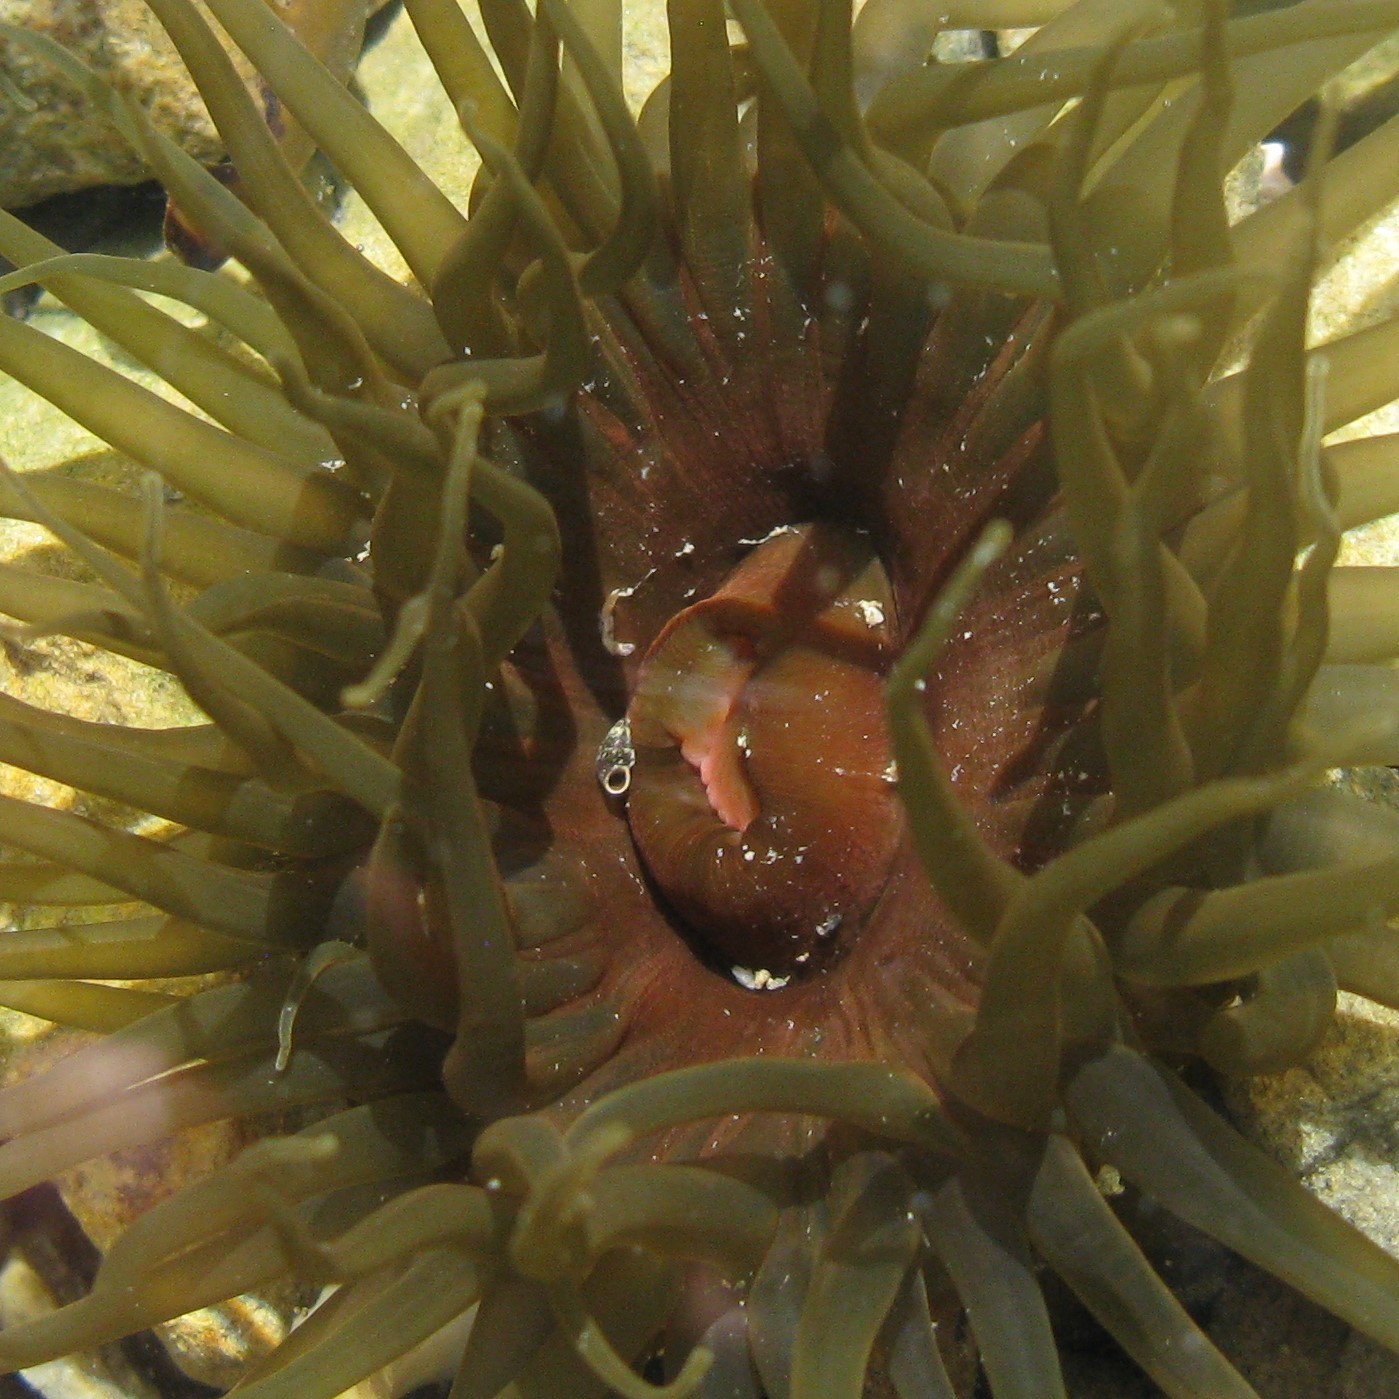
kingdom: Animalia
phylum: Cnidaria
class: Anthozoa
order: Actiniaria
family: Actiniidae
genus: Isactinia
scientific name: Isactinia olivacea
